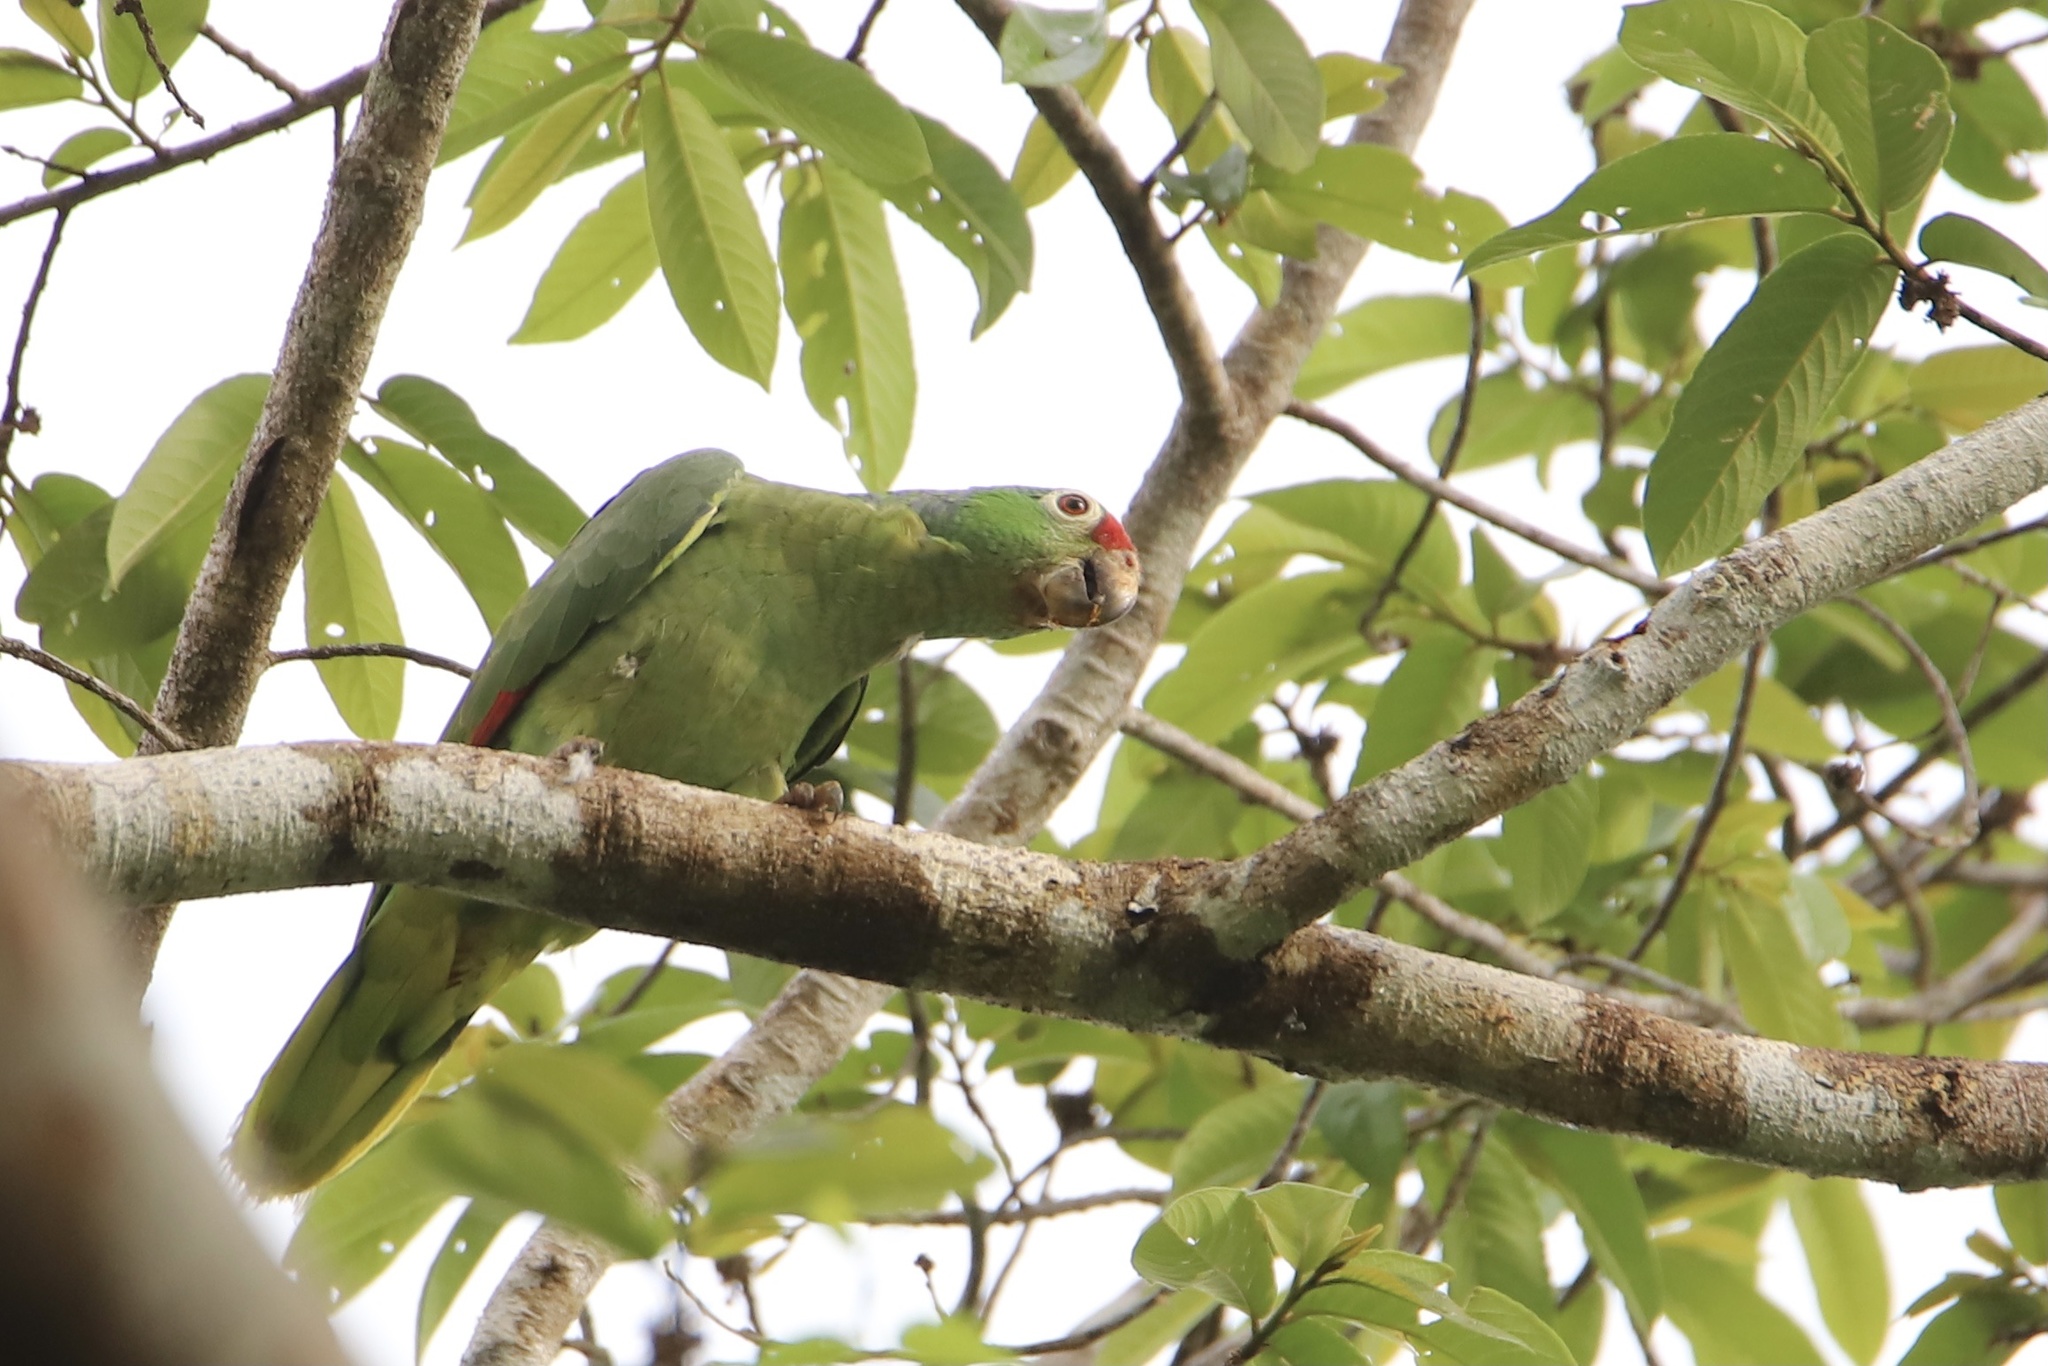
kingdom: Animalia
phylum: Chordata
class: Aves
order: Psittaciformes
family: Psittacidae
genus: Amazona
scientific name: Amazona autumnalis
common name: Red-lored amazon
